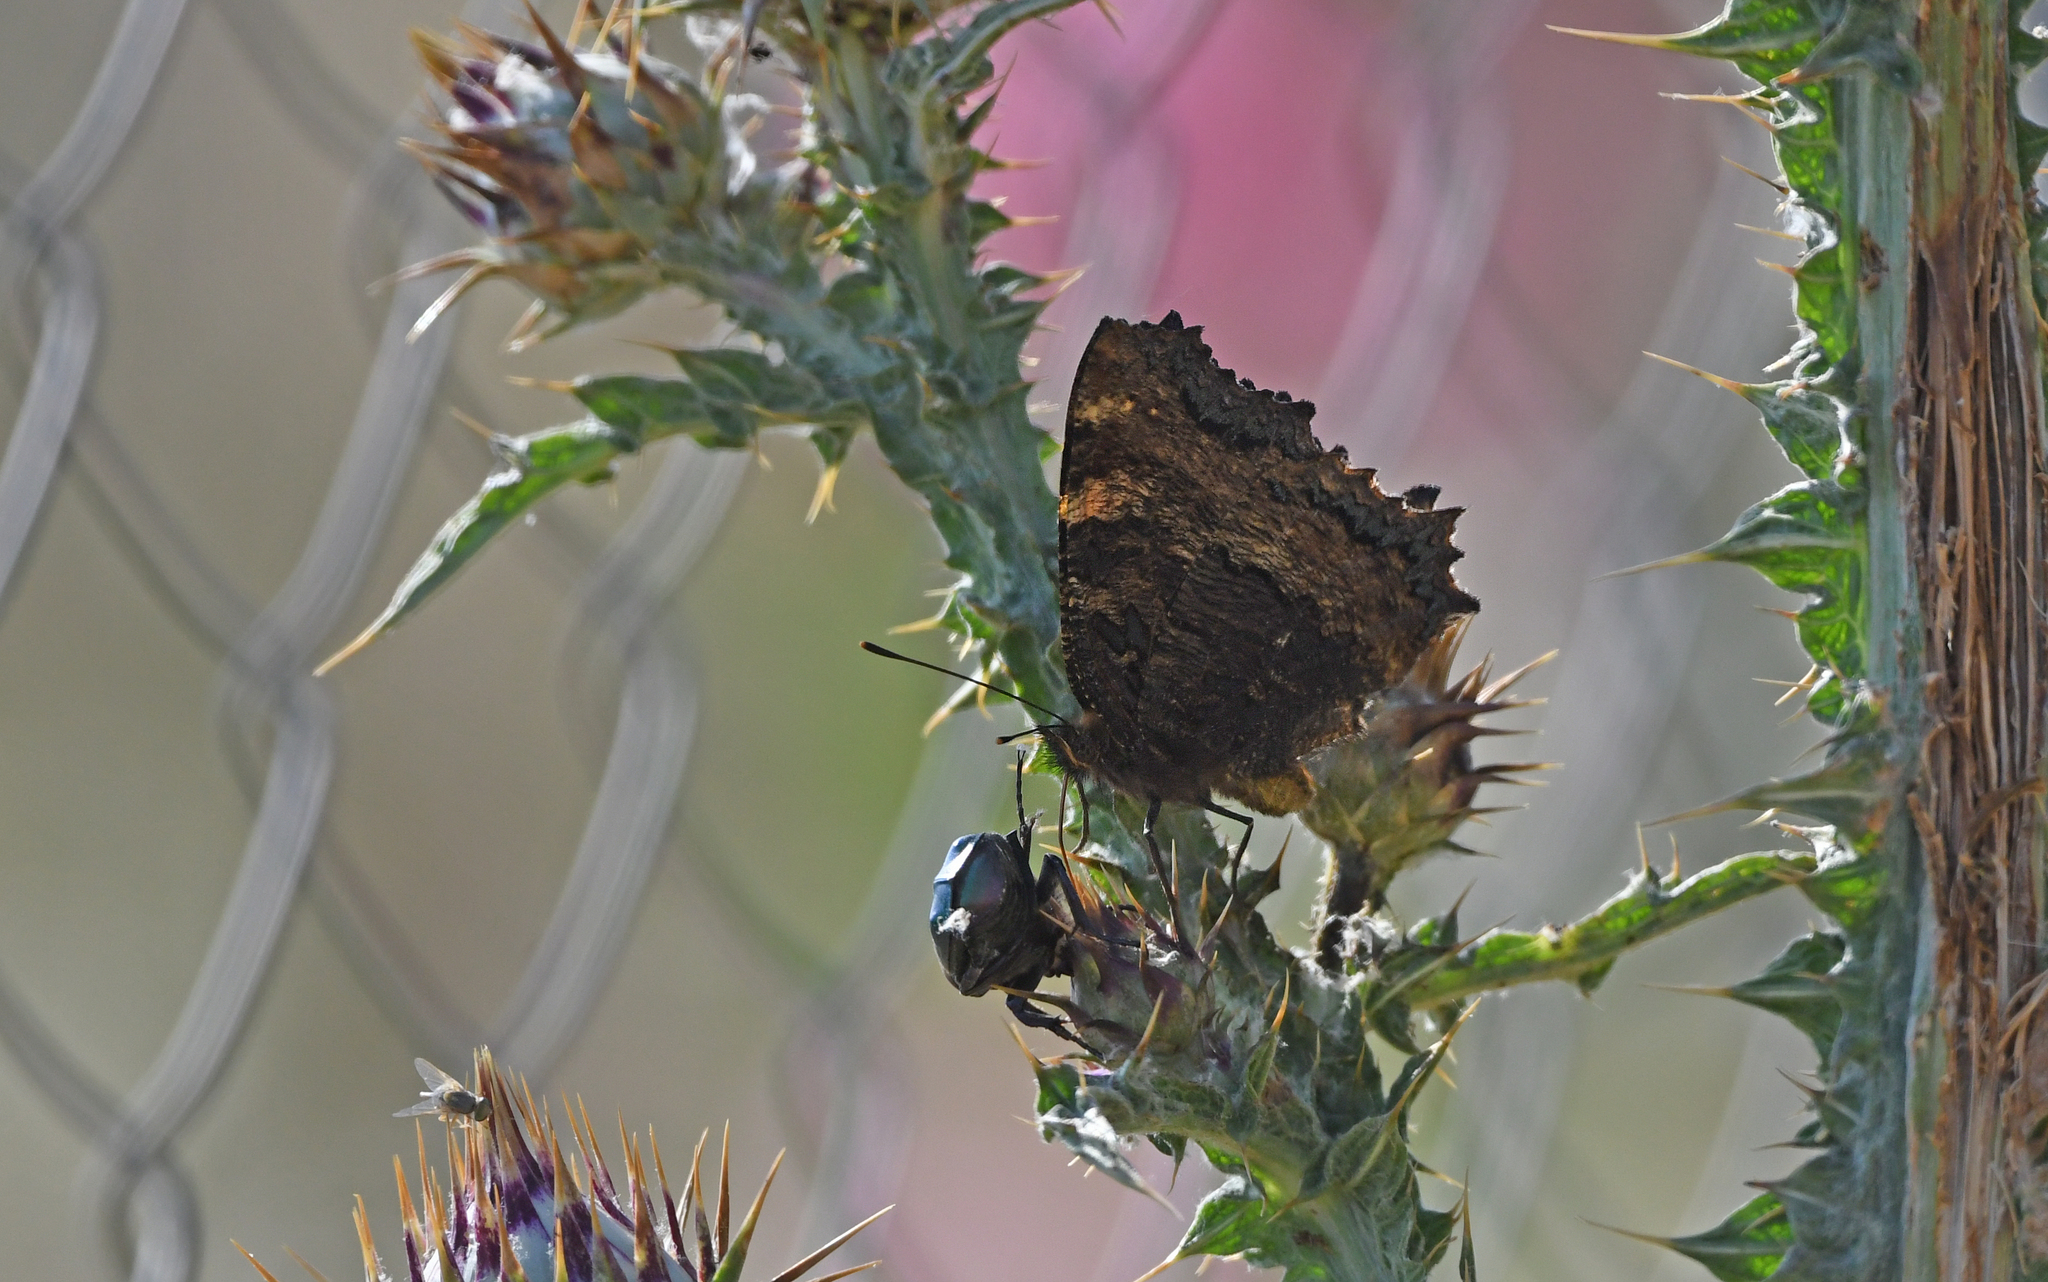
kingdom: Animalia
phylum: Arthropoda
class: Insecta
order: Lepidoptera
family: Nymphalidae
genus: Nymphalis
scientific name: Nymphalis polychloros
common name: Large tortoiseshell
